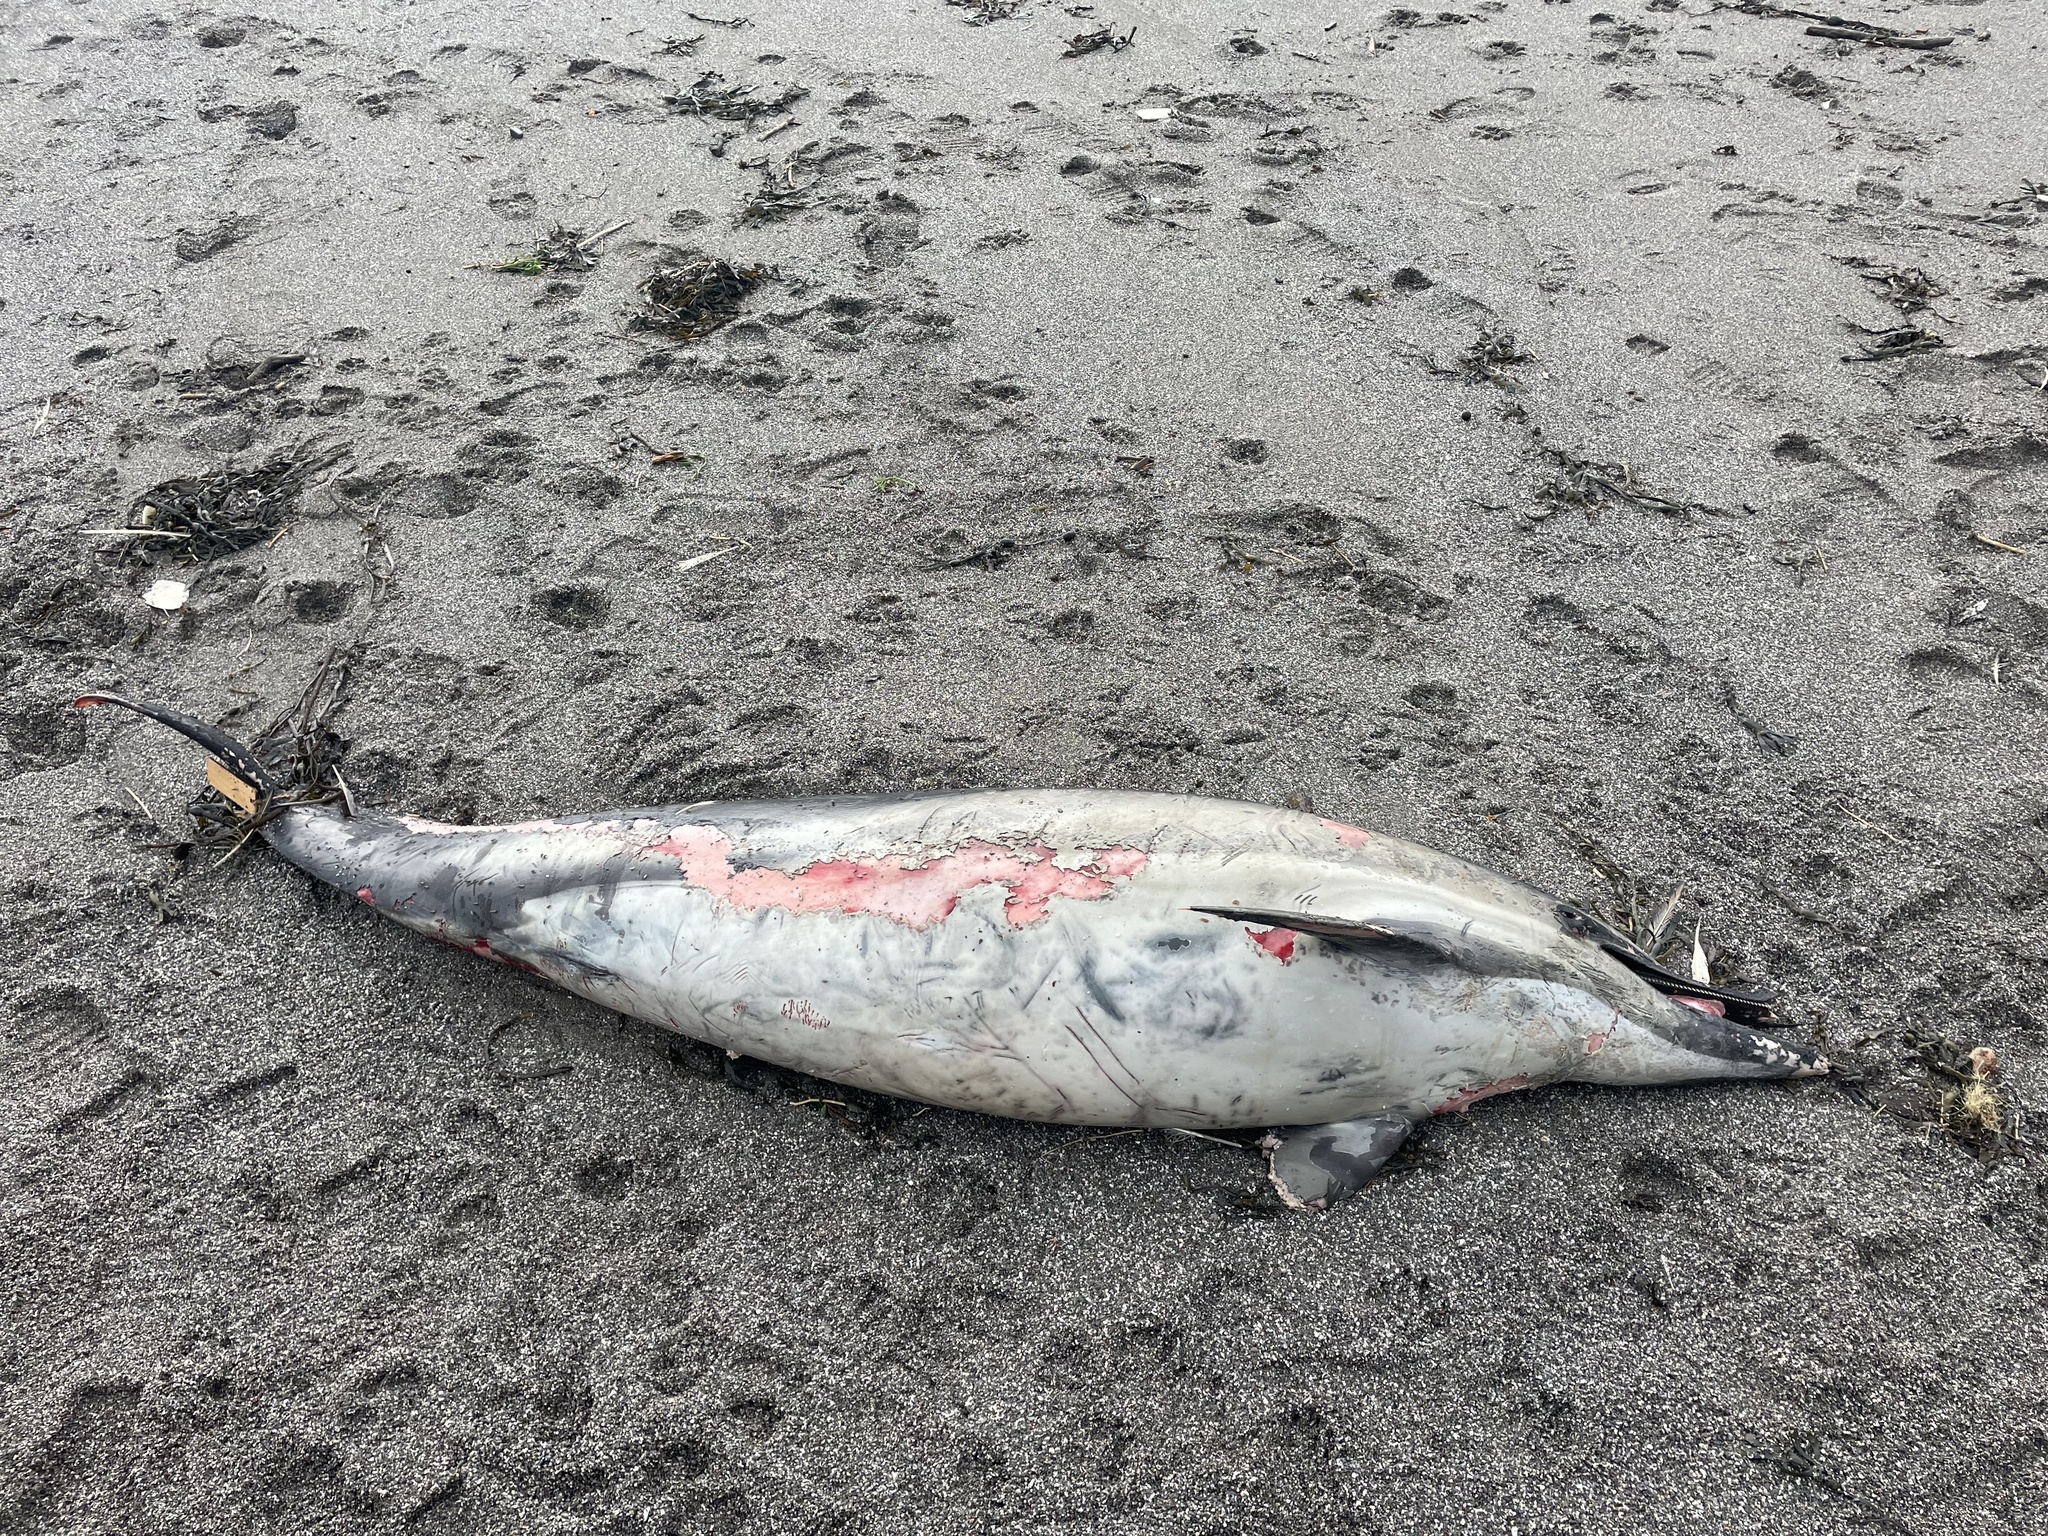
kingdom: Animalia
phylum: Chordata
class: Mammalia
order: Cetacea
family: Delphinidae
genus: Delphinus
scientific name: Delphinus delphis
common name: Common dolphin
